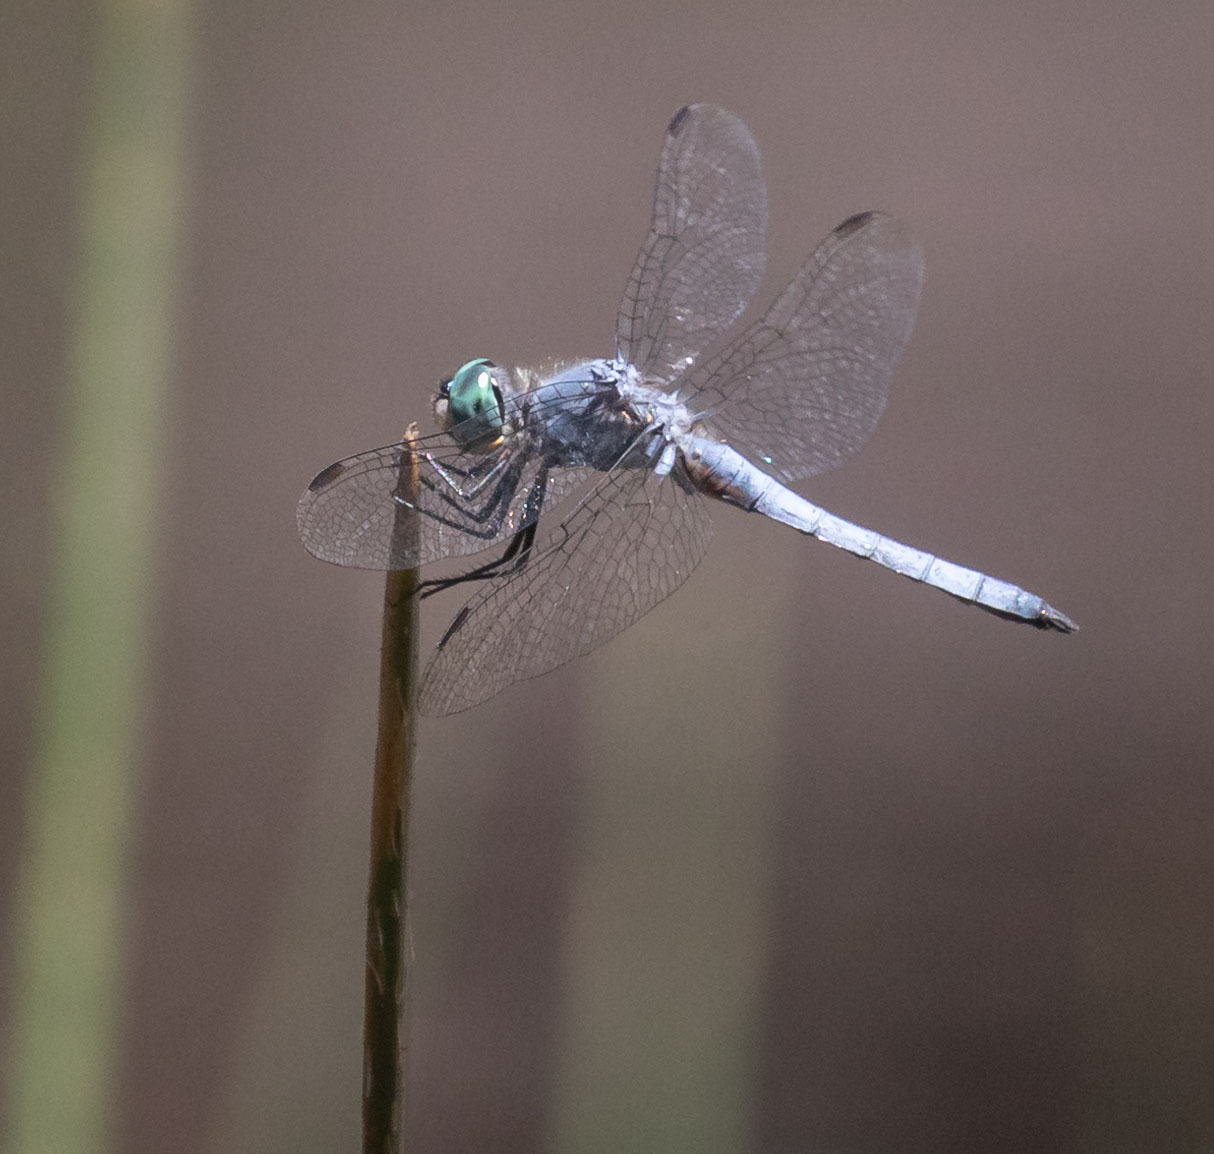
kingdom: Animalia
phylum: Arthropoda
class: Insecta
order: Odonata
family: Libellulidae
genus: Pachydiplax
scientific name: Pachydiplax longipennis
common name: Blue dasher
